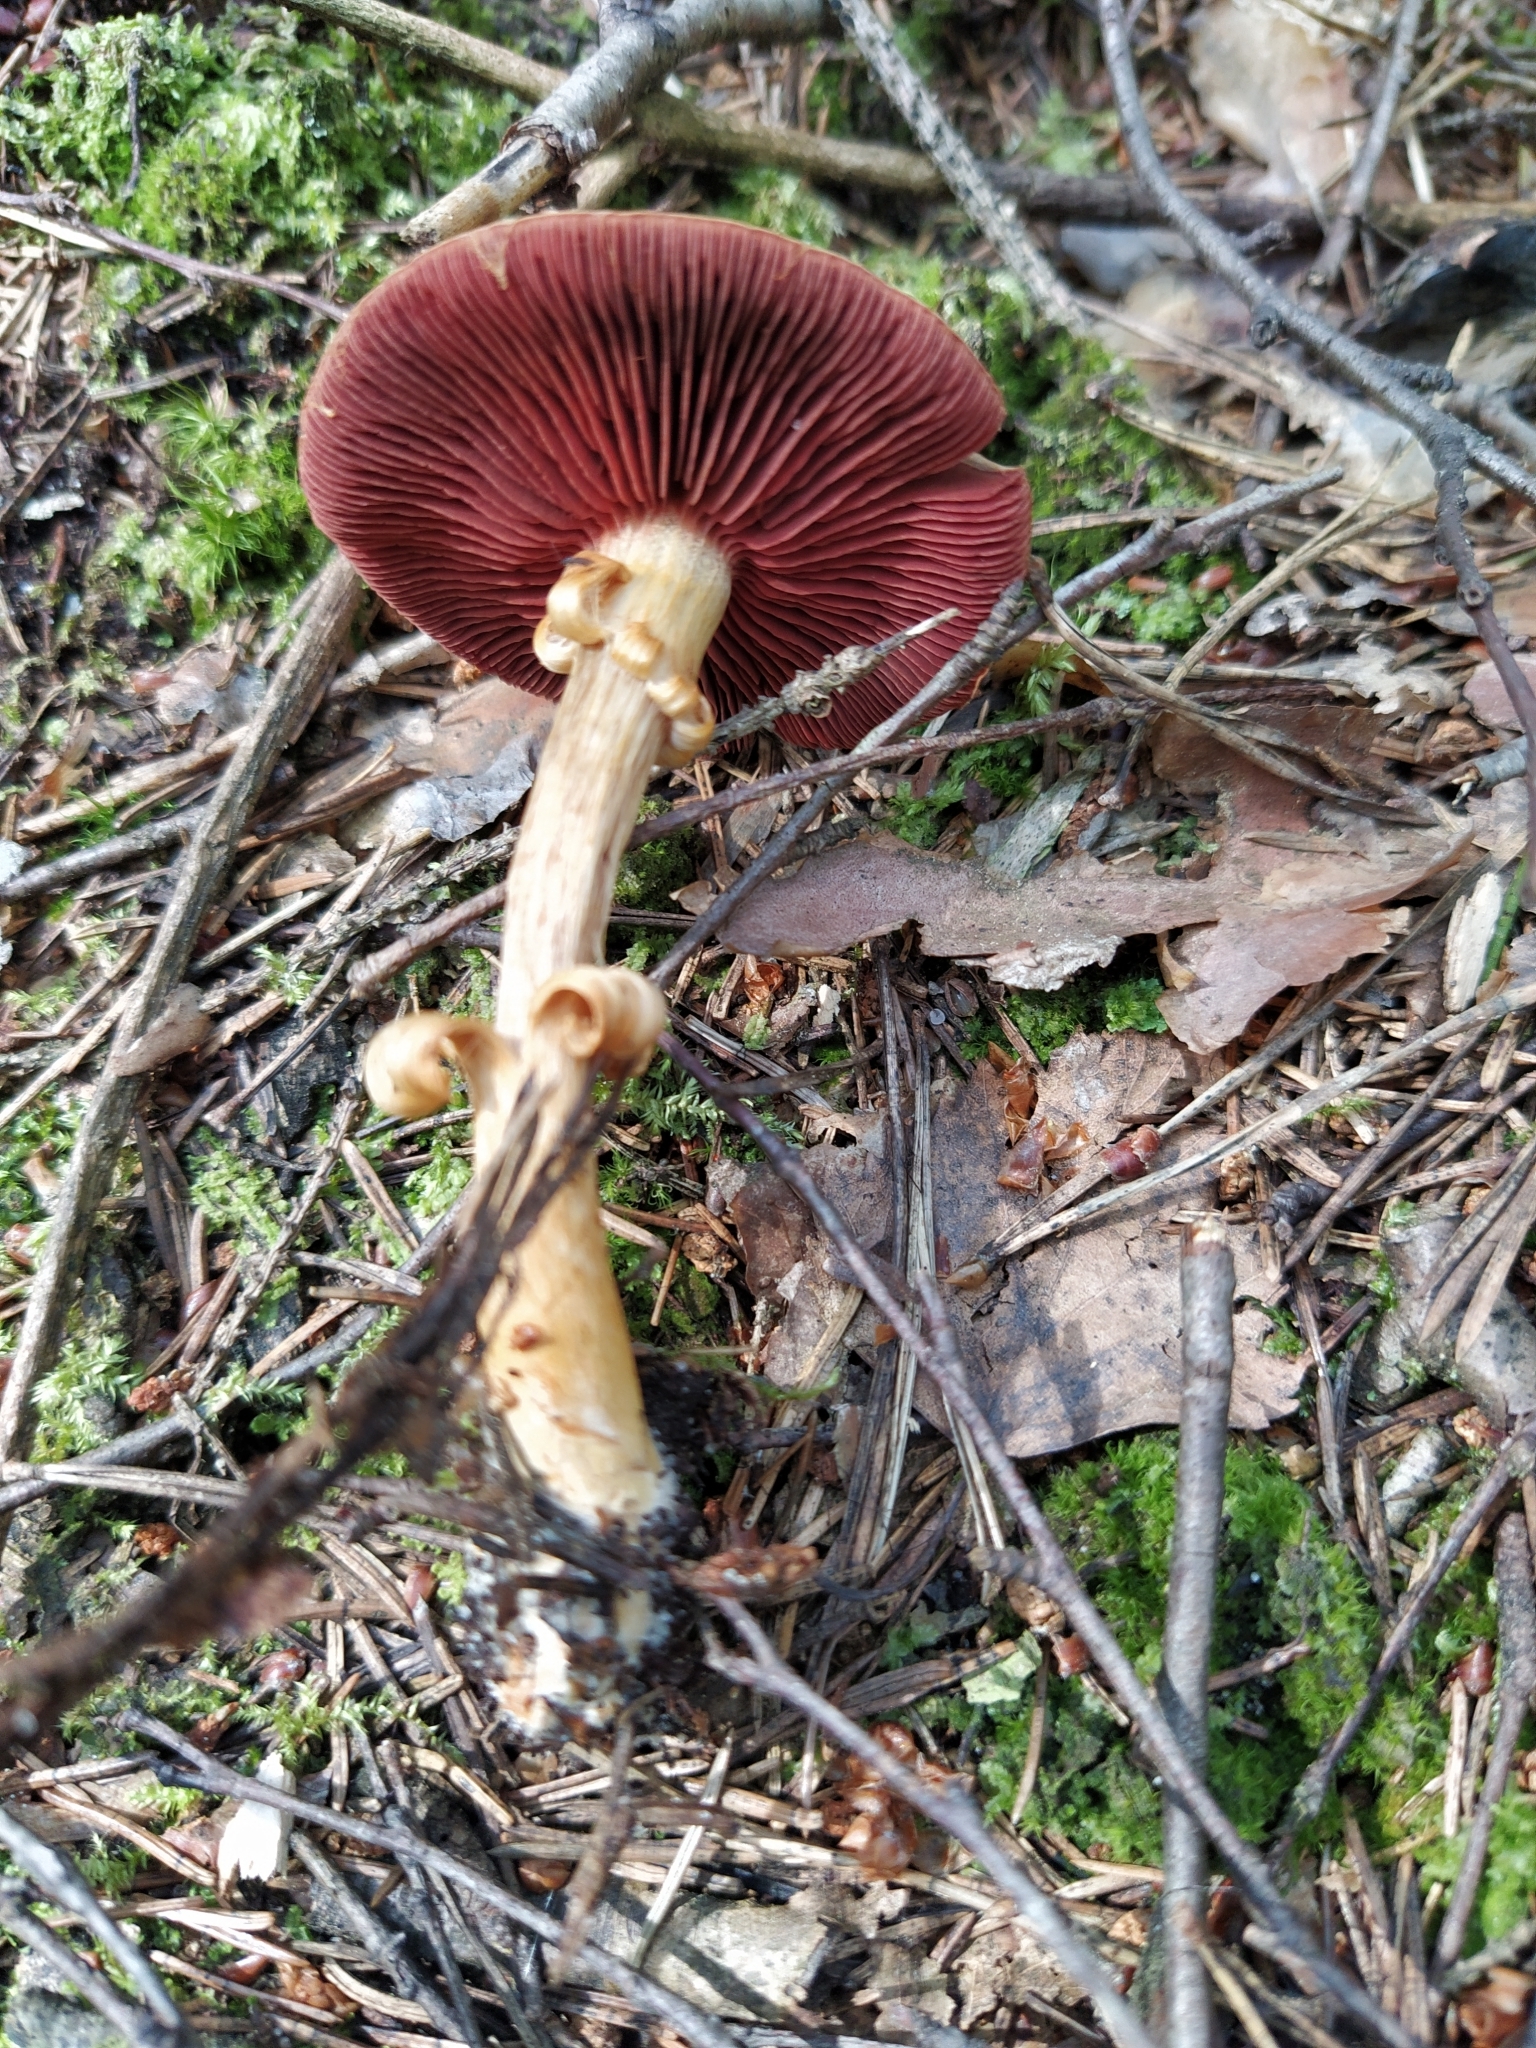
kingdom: Fungi
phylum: Basidiomycota
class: Agaricomycetes
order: Agaricales
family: Cortinariaceae
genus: Cortinarius
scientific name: Cortinarius semisanguineus
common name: Surprise webcap
